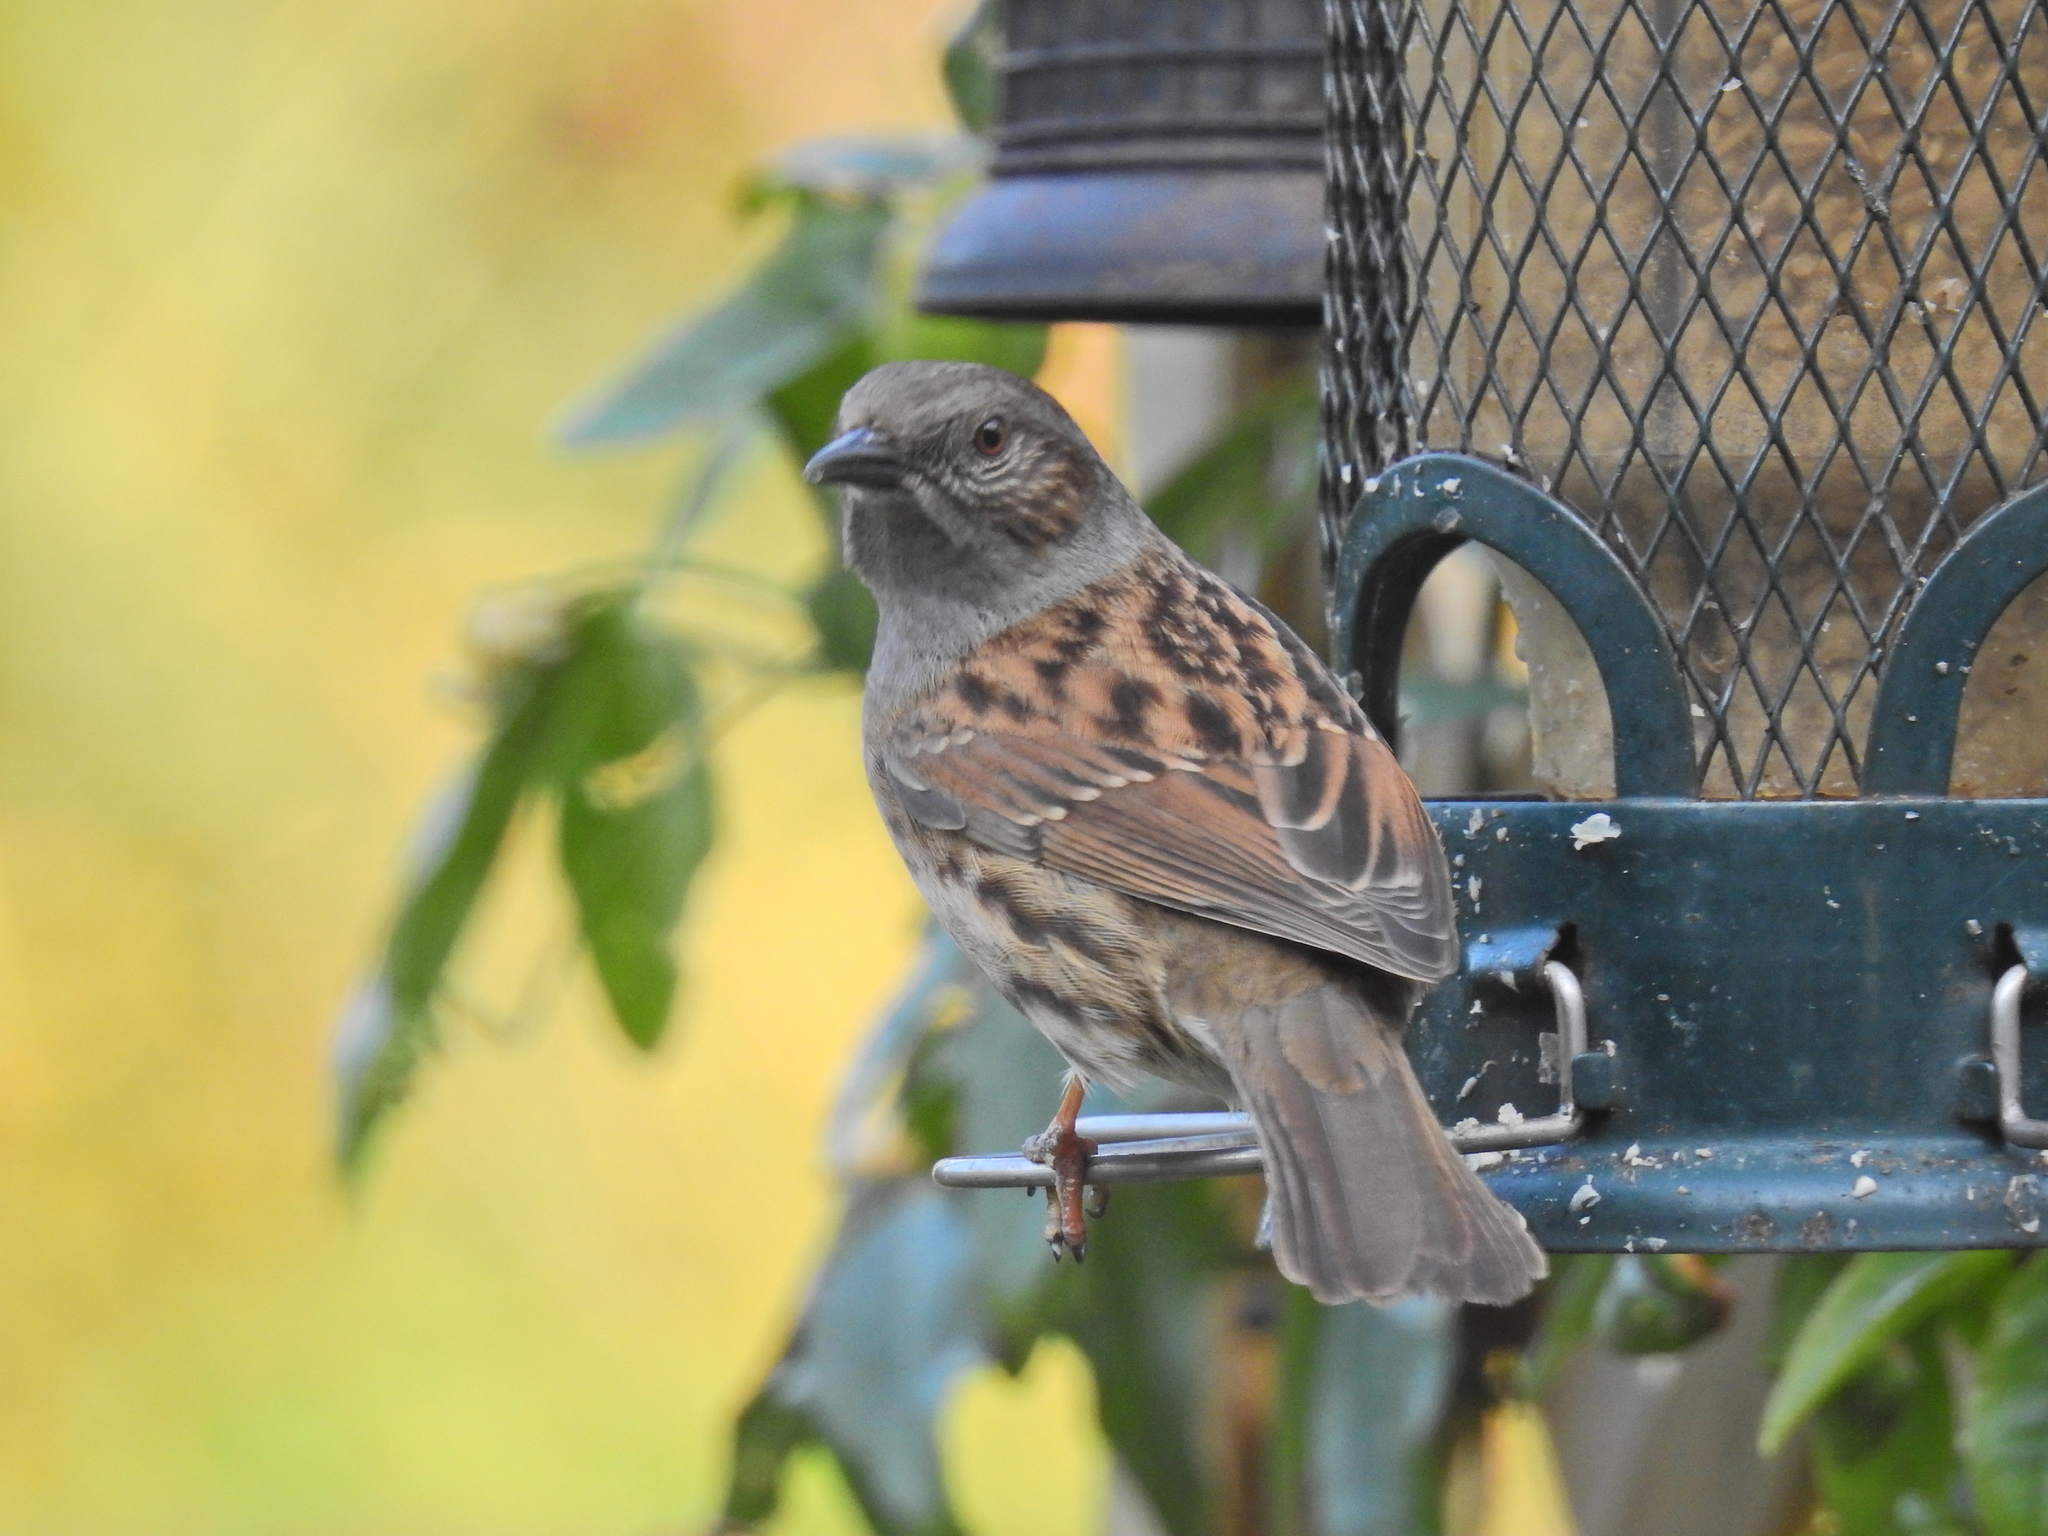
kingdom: Animalia
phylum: Chordata
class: Aves
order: Passeriformes
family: Prunellidae
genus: Prunella
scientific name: Prunella modularis
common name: Dunnock
